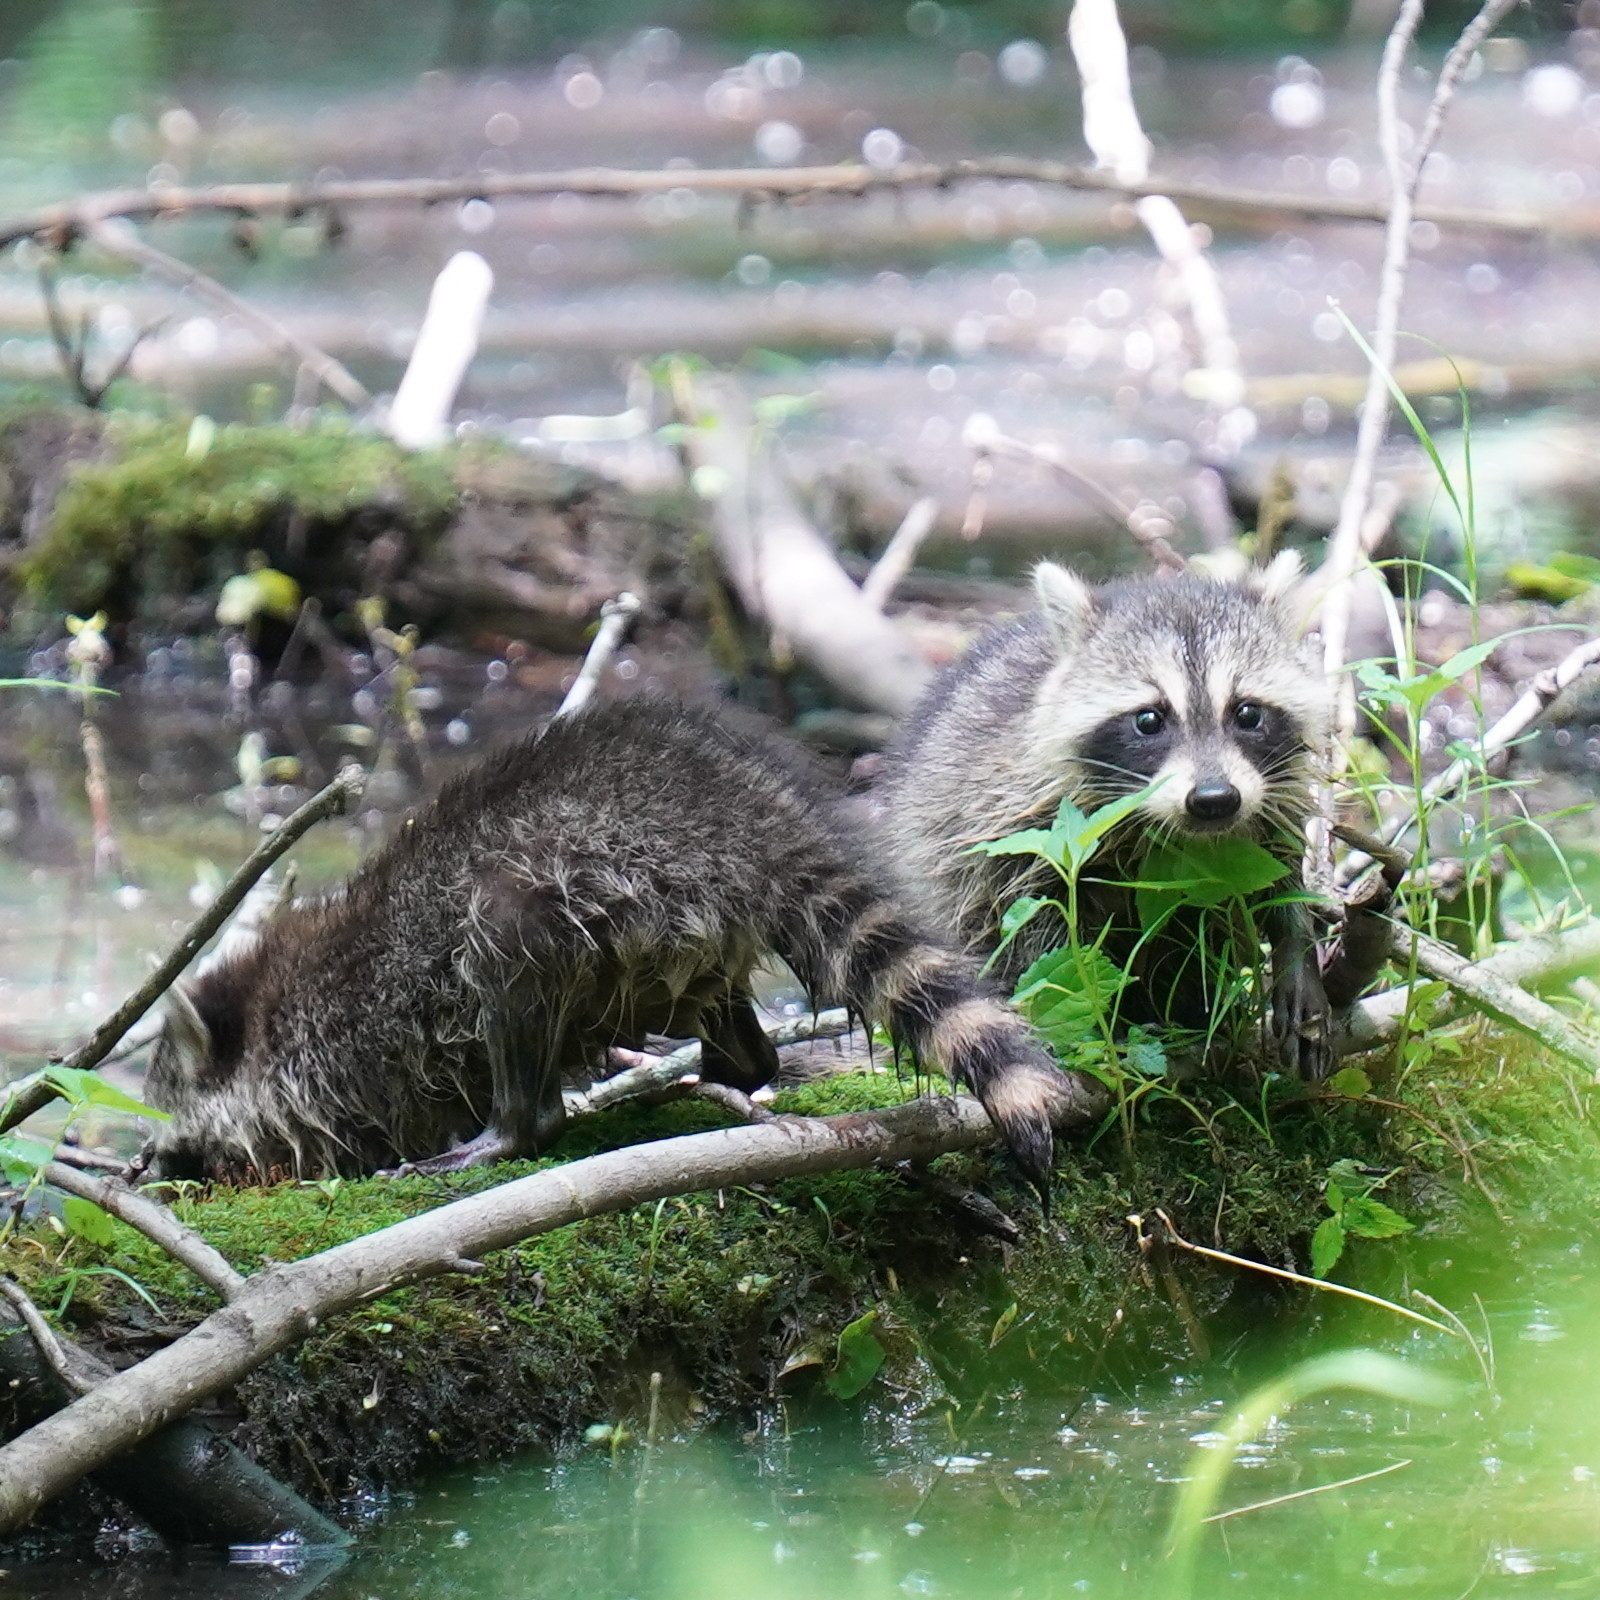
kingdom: Animalia
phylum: Chordata
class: Mammalia
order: Carnivora
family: Procyonidae
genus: Procyon
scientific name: Procyon lotor
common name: Raccoon
